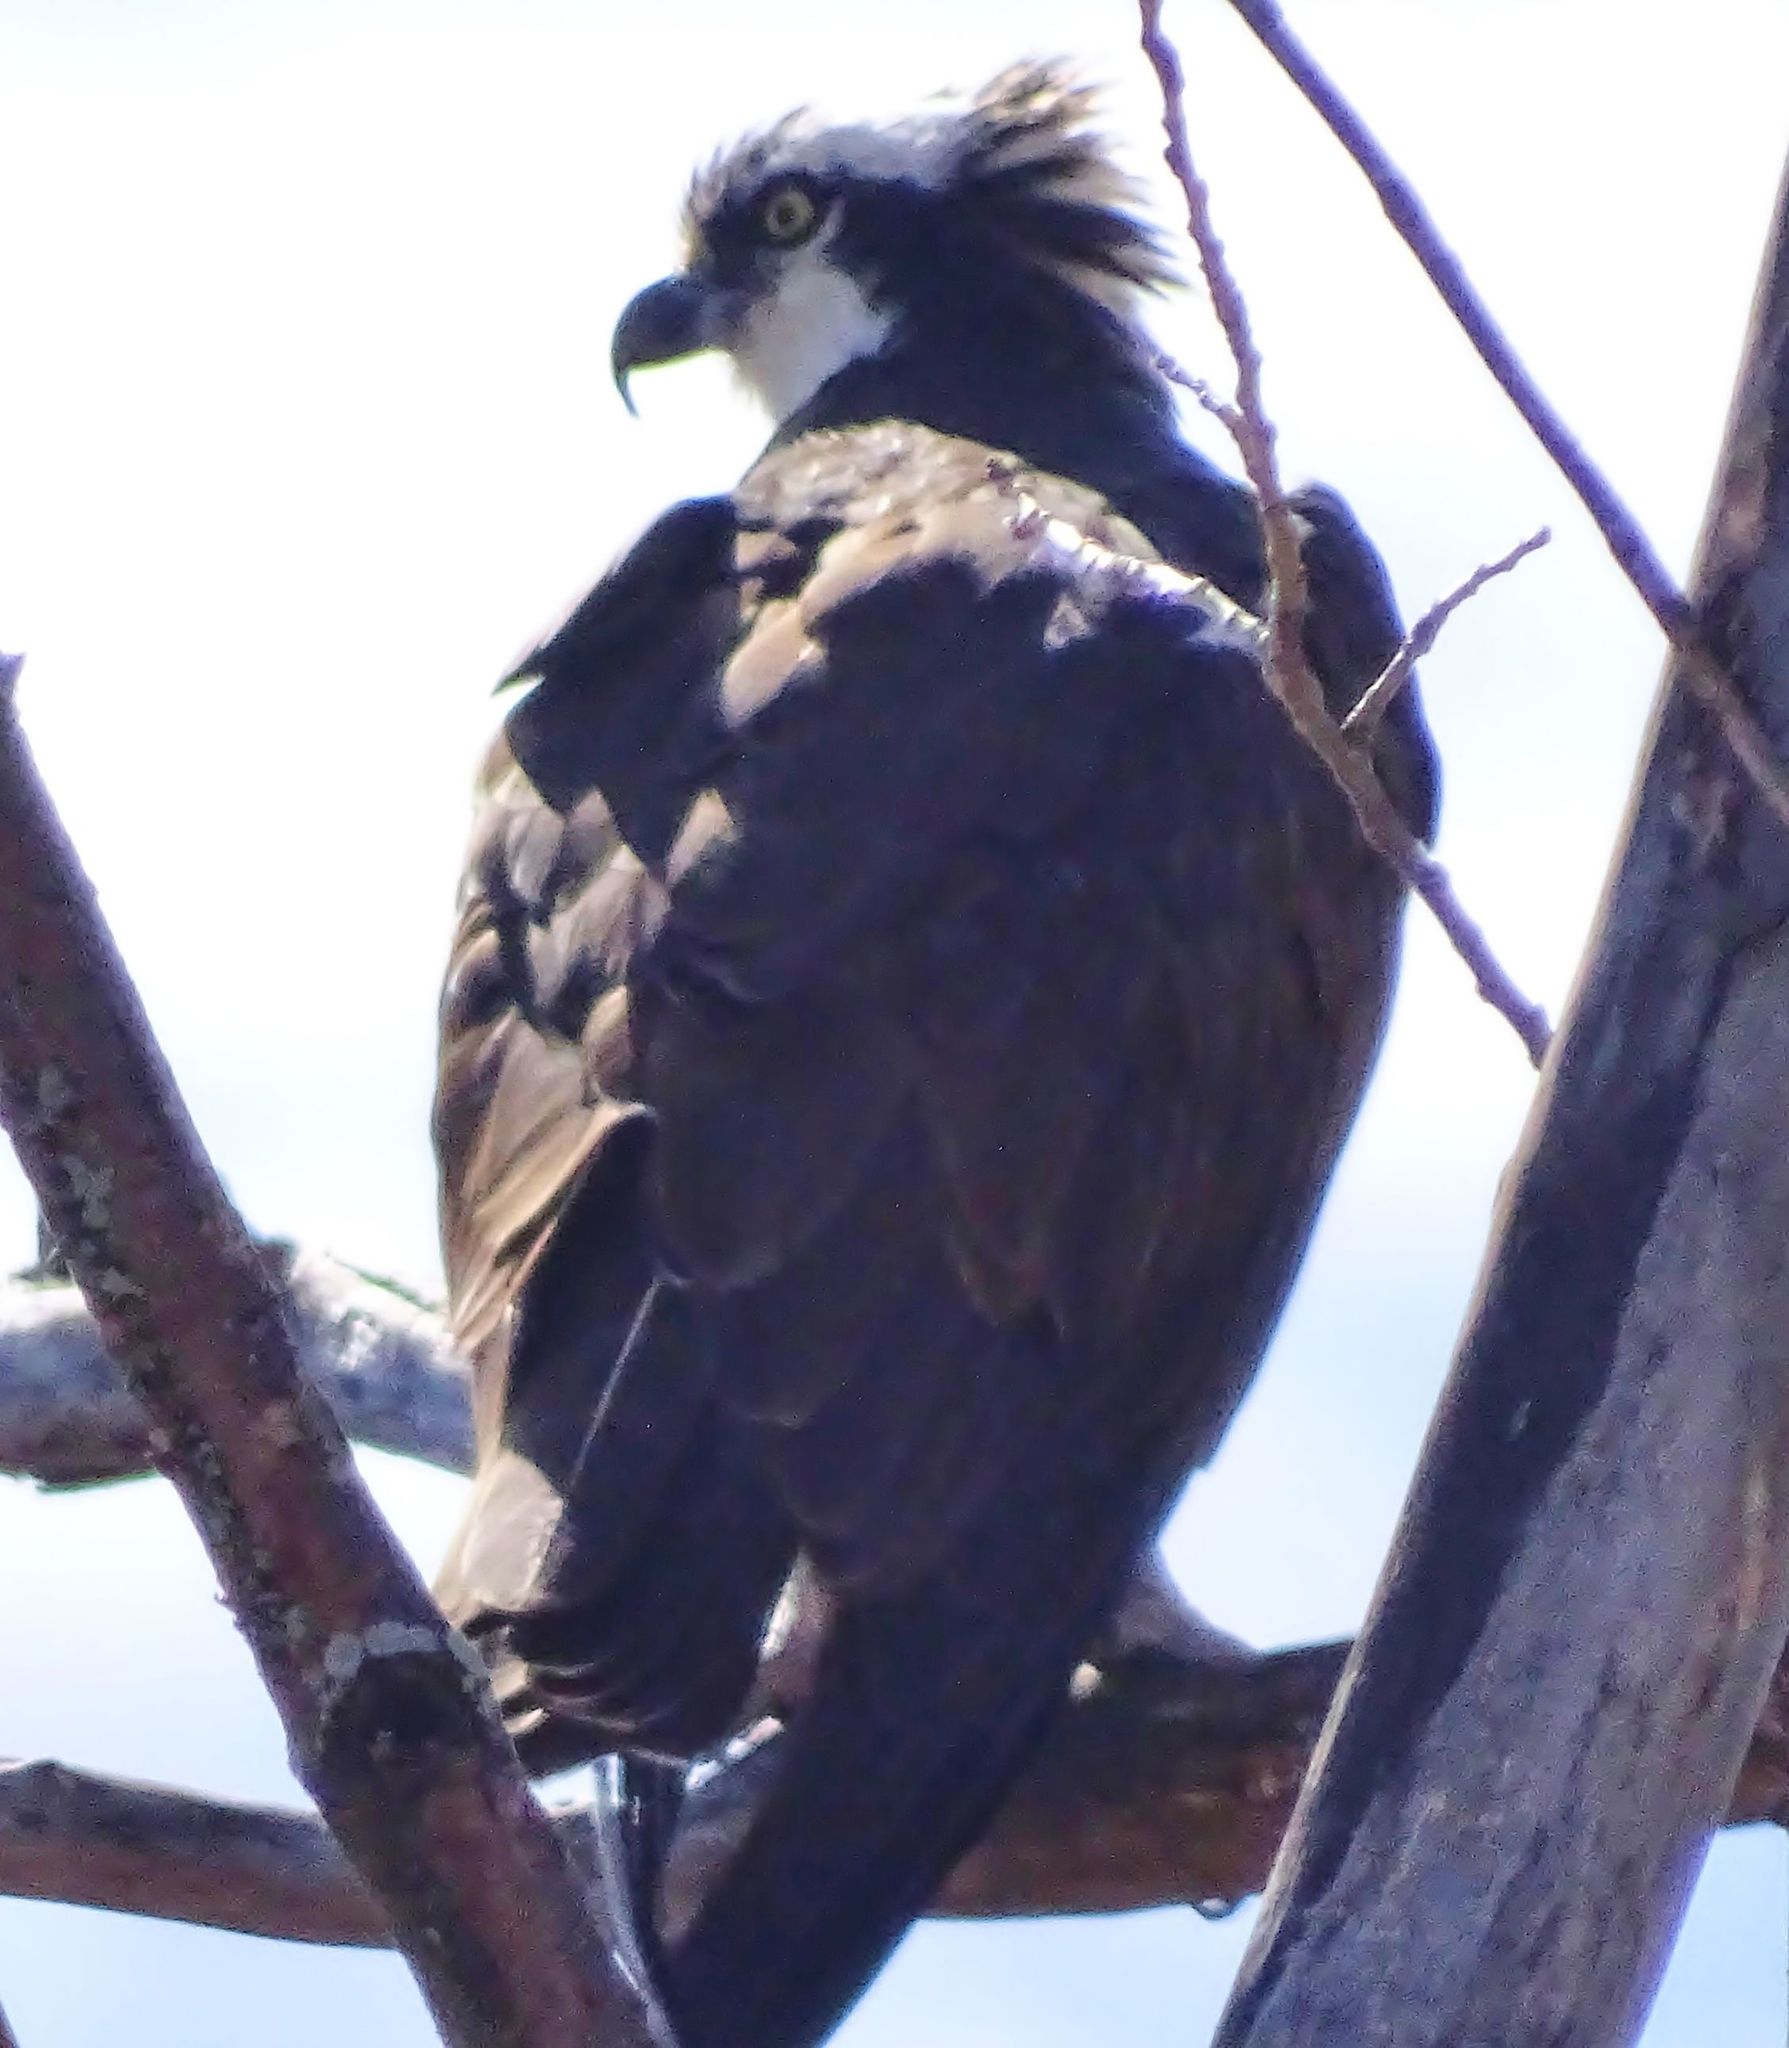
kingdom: Animalia
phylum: Chordata
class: Aves
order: Accipitriformes
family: Pandionidae
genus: Pandion
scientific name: Pandion haliaetus
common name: Osprey
